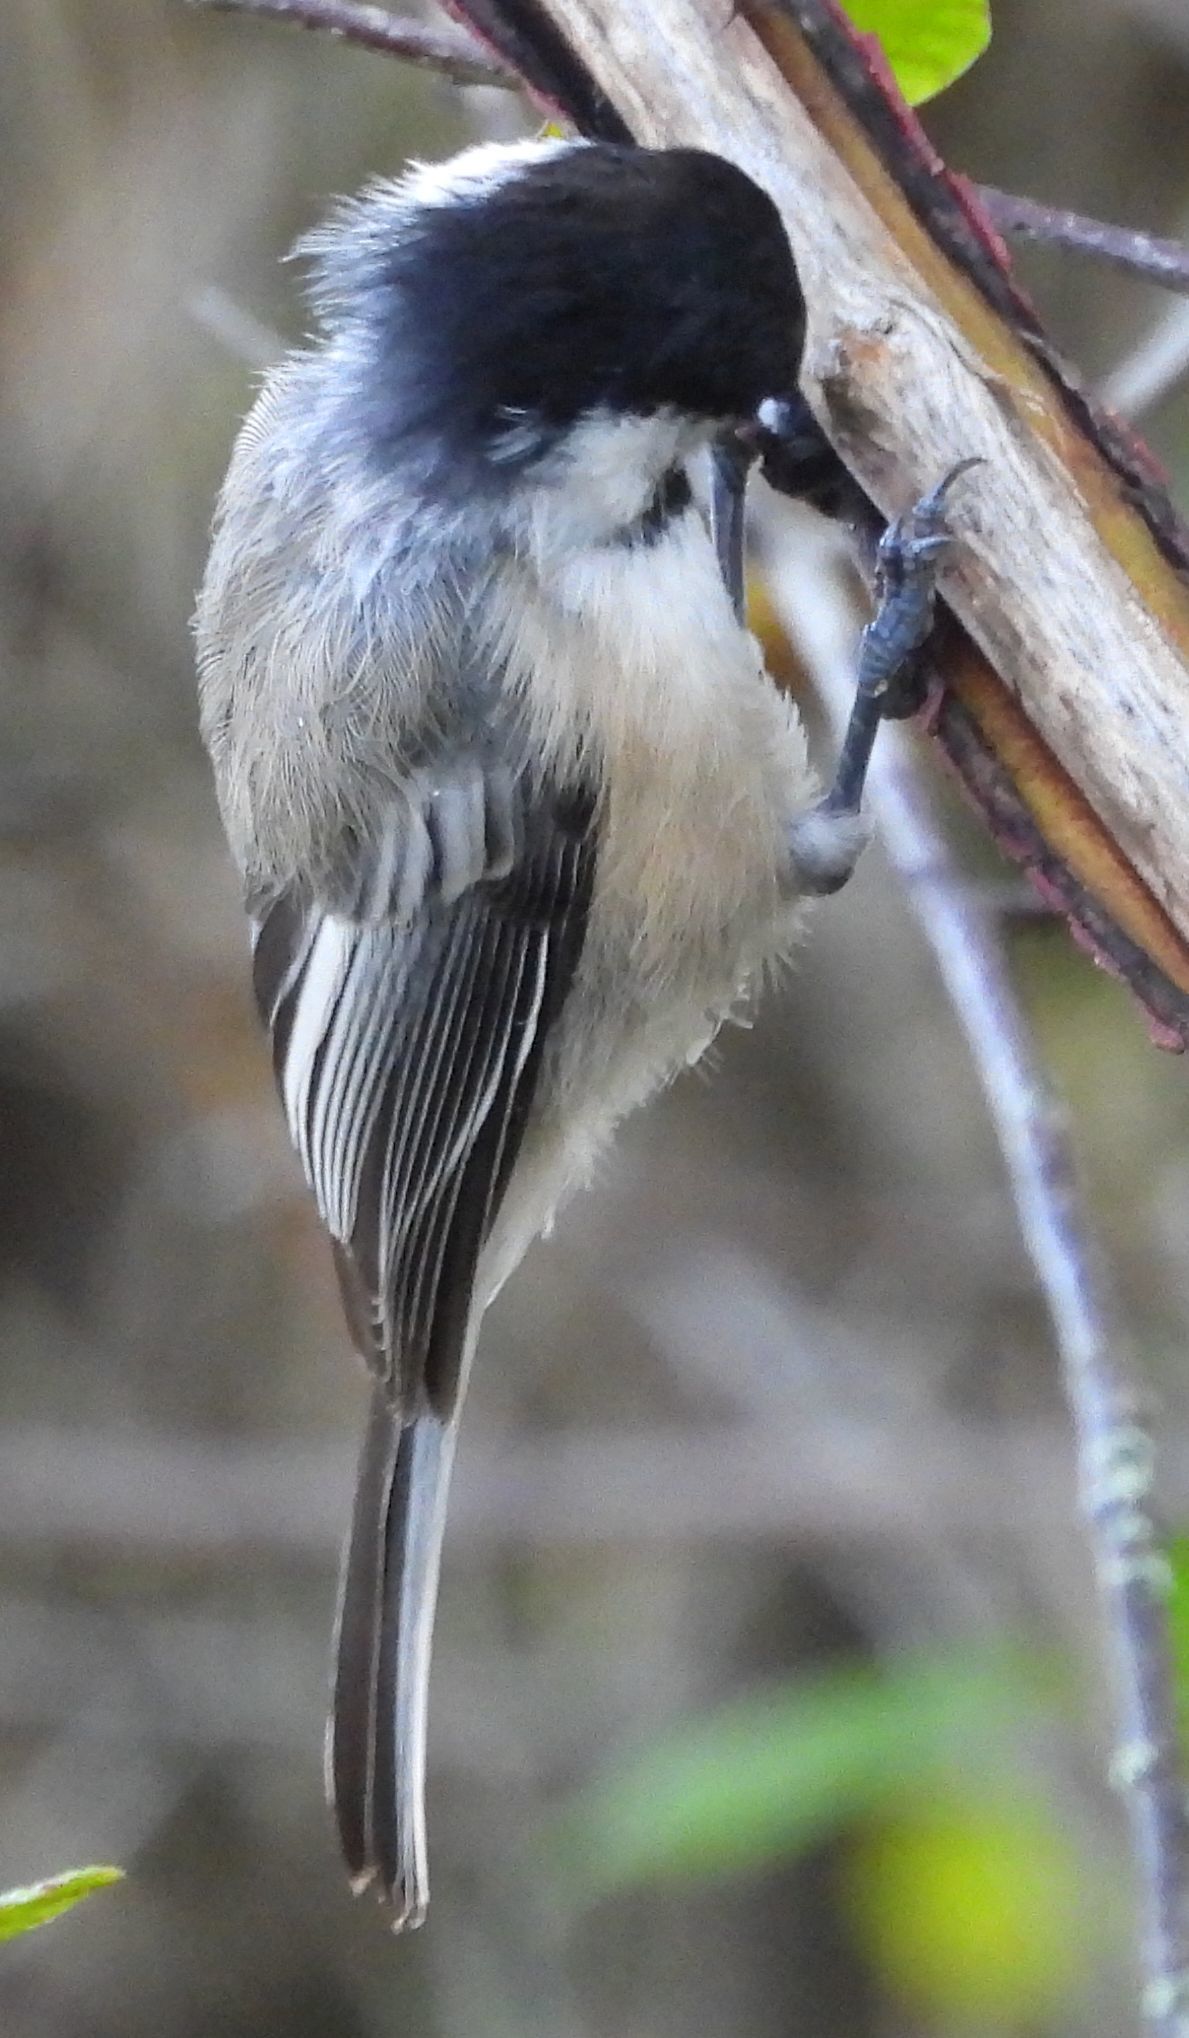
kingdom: Animalia
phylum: Chordata
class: Aves
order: Passeriformes
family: Paridae
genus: Poecile
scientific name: Poecile atricapillus
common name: Black-capped chickadee
